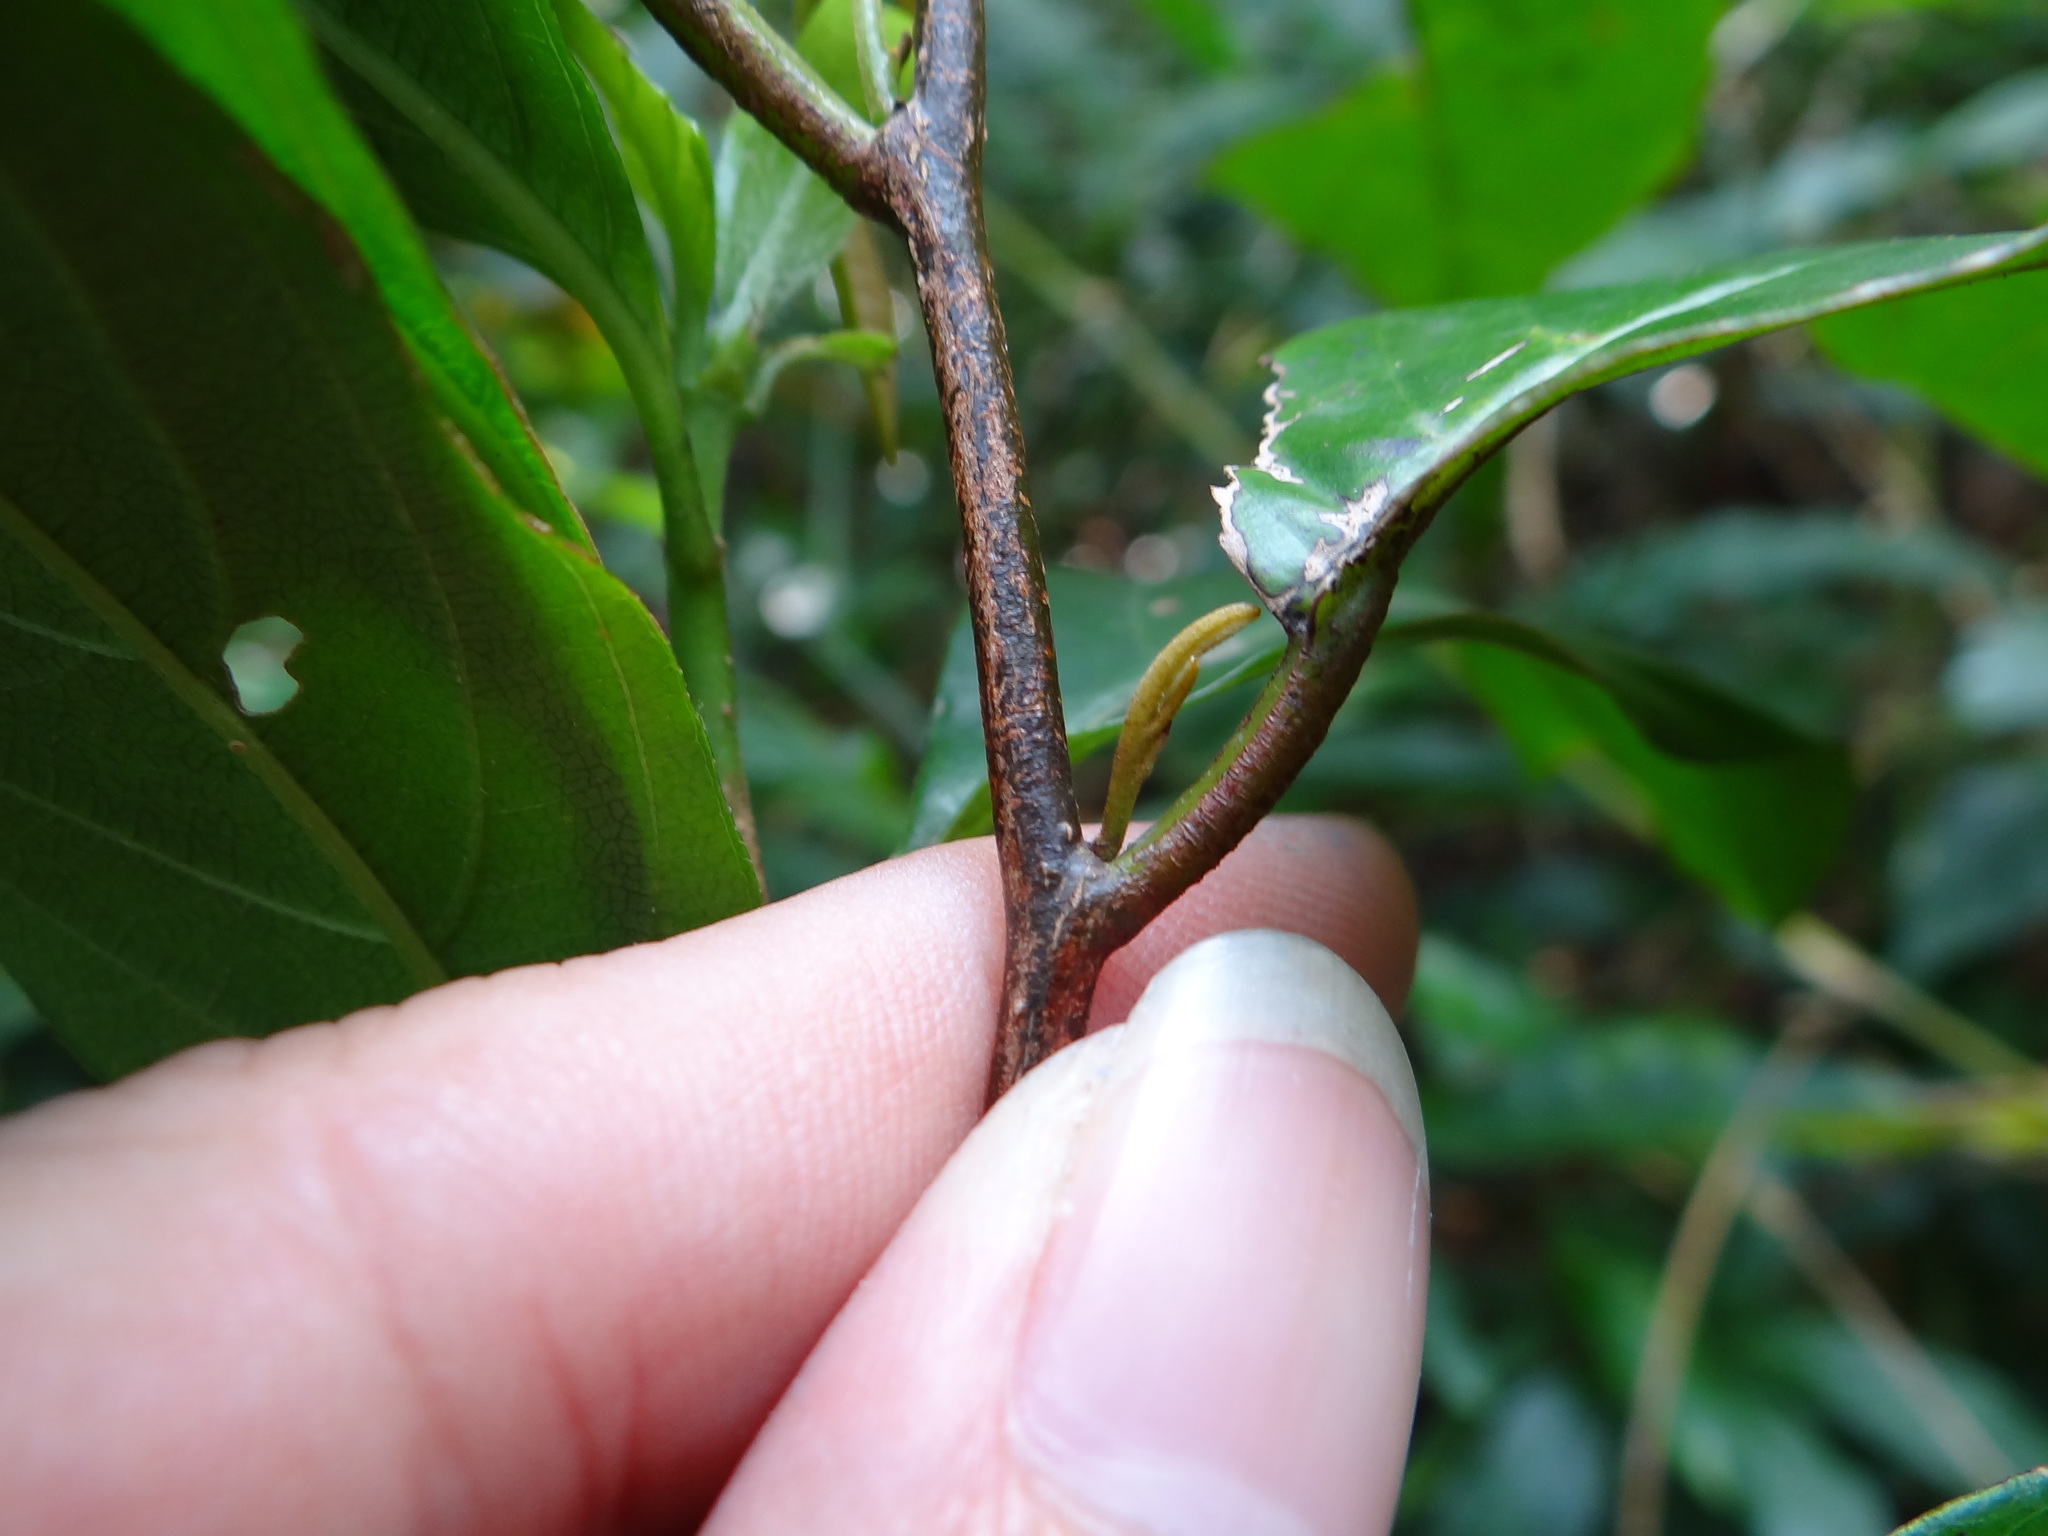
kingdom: Plantae
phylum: Tracheophyta
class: Magnoliopsida
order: Magnoliales
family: Annonaceae
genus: Fissistigma
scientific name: Fissistigma glaucescens
